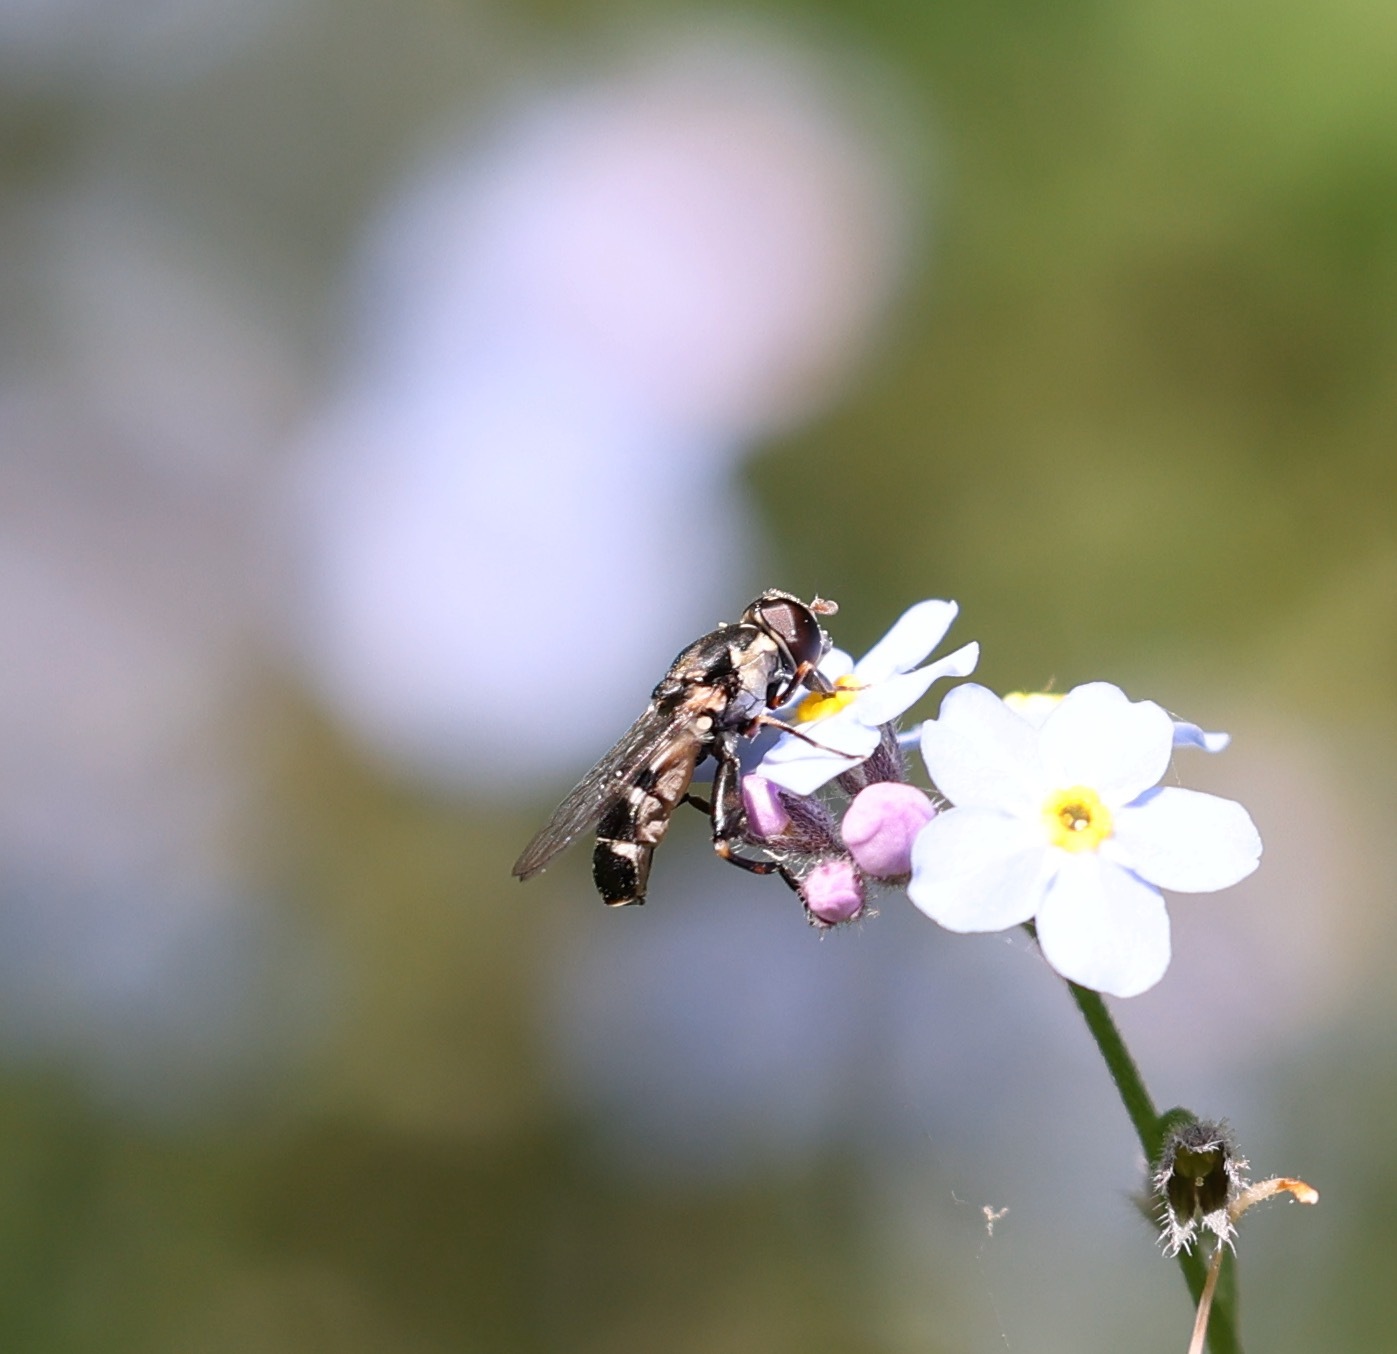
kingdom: Animalia
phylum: Arthropoda
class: Insecta
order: Diptera
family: Syrphidae
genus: Syritta
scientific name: Syritta pipiens
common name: Hover fly
